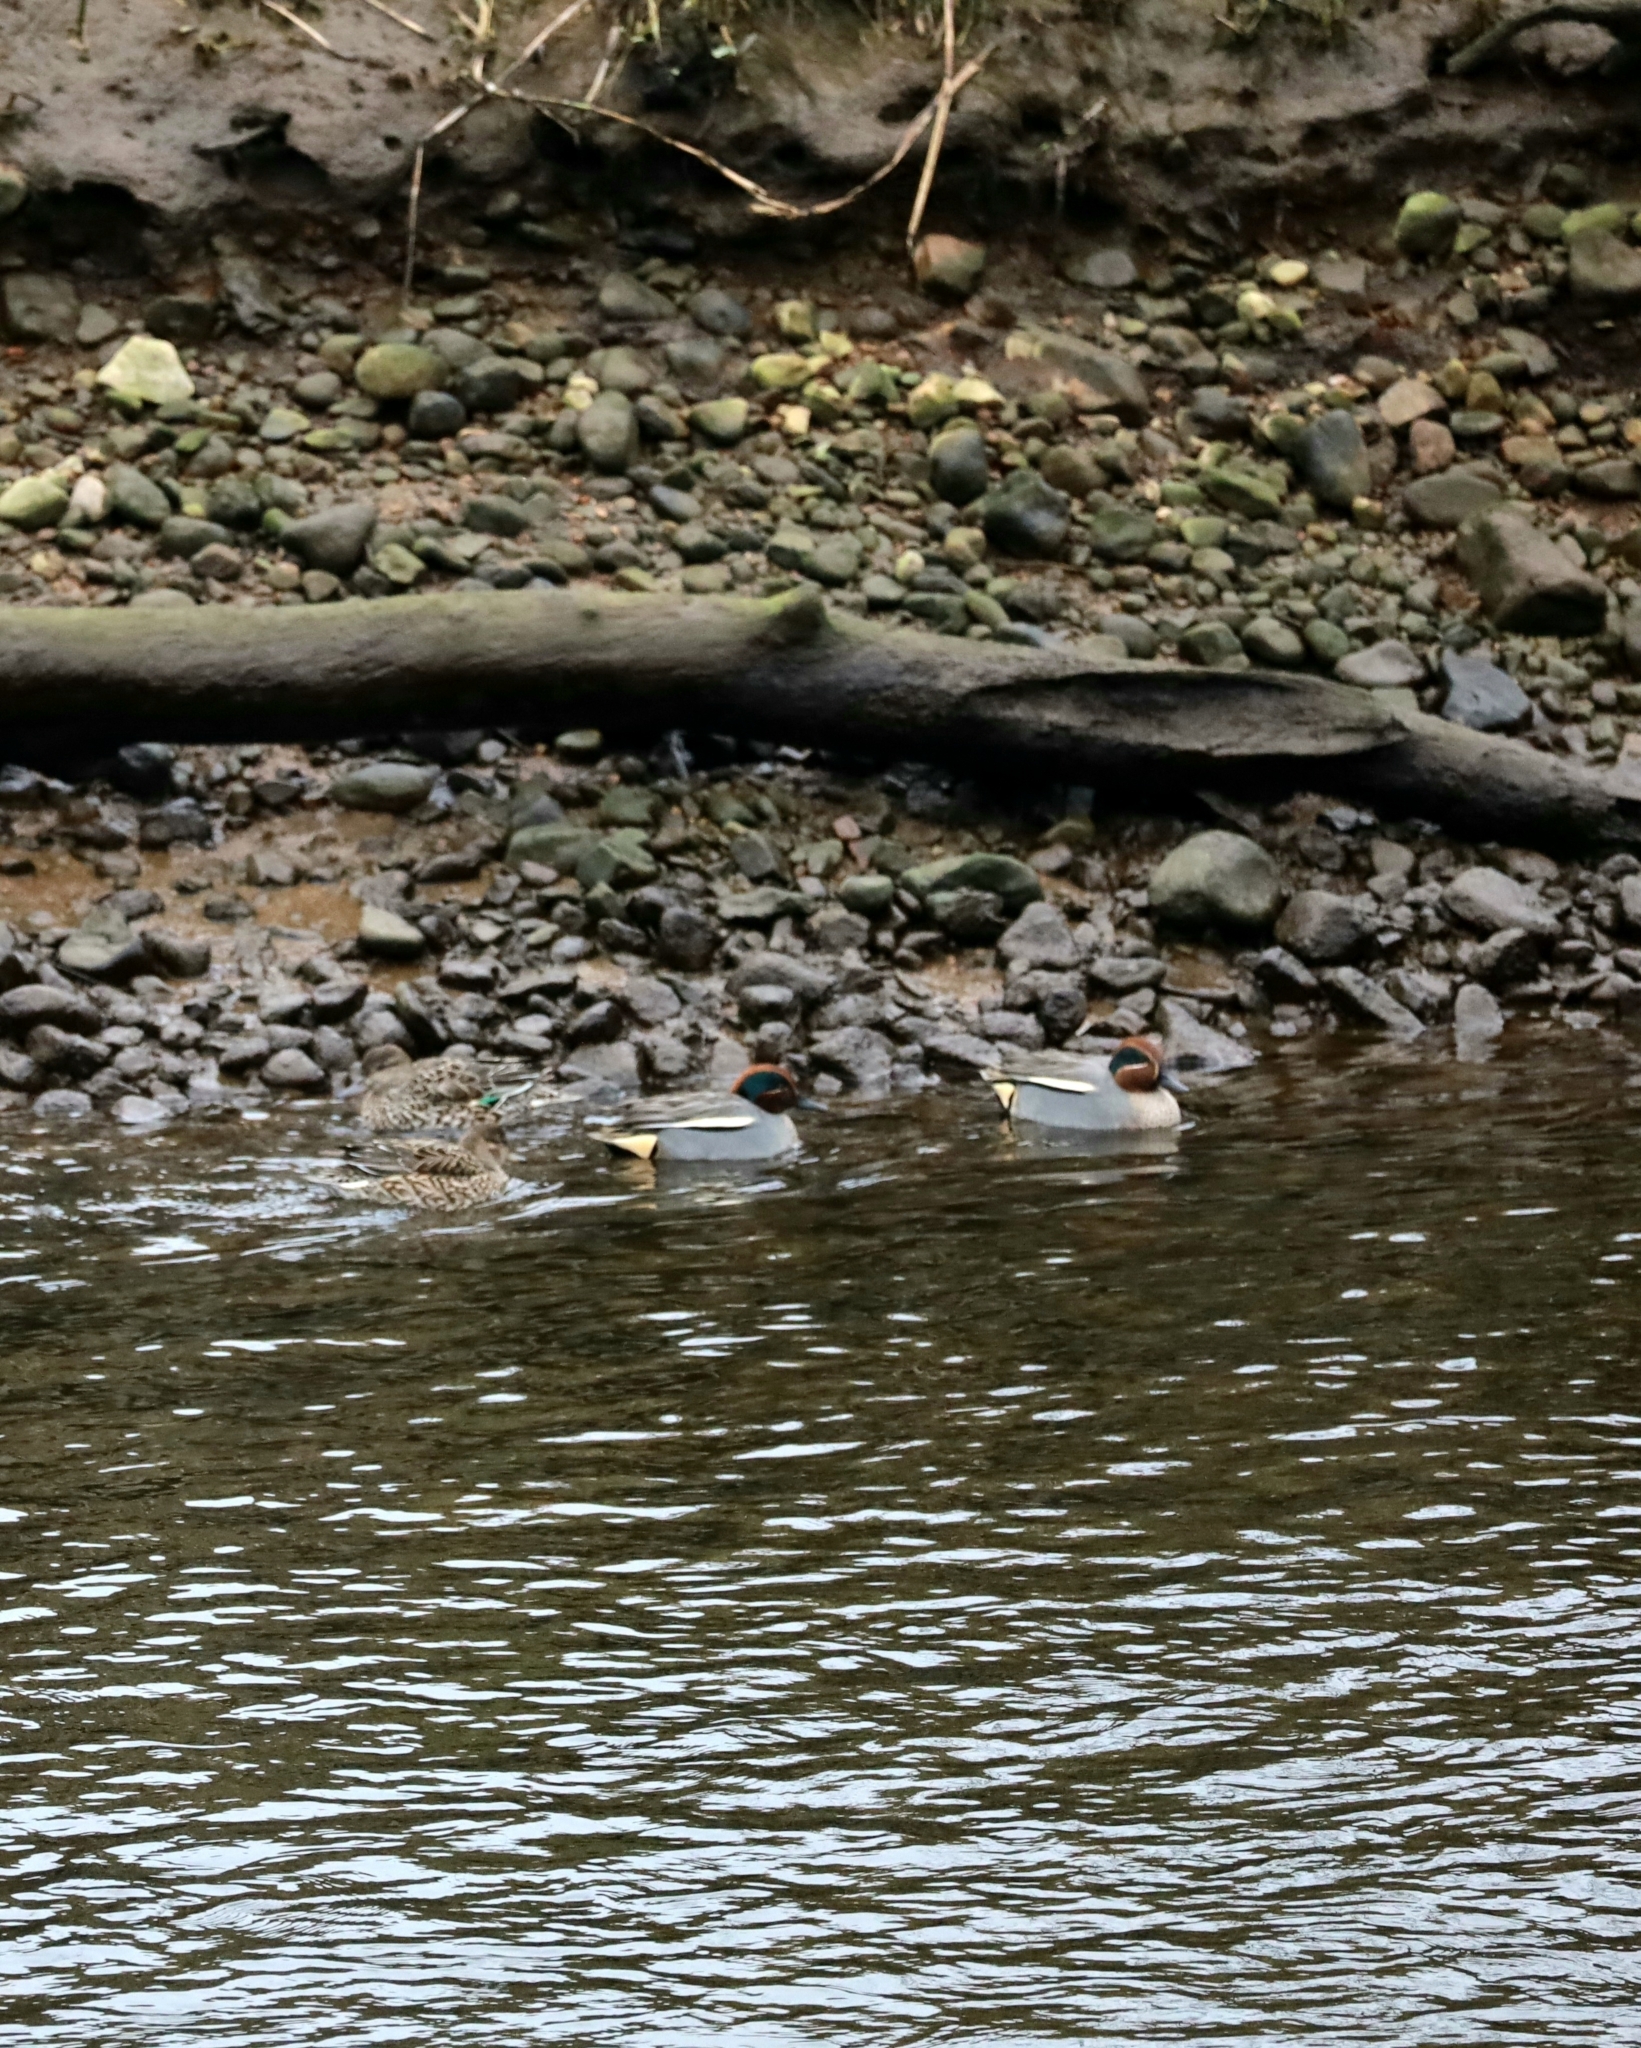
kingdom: Animalia
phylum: Chordata
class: Aves
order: Anseriformes
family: Anatidae
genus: Anas
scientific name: Anas crecca
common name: Eurasian teal
